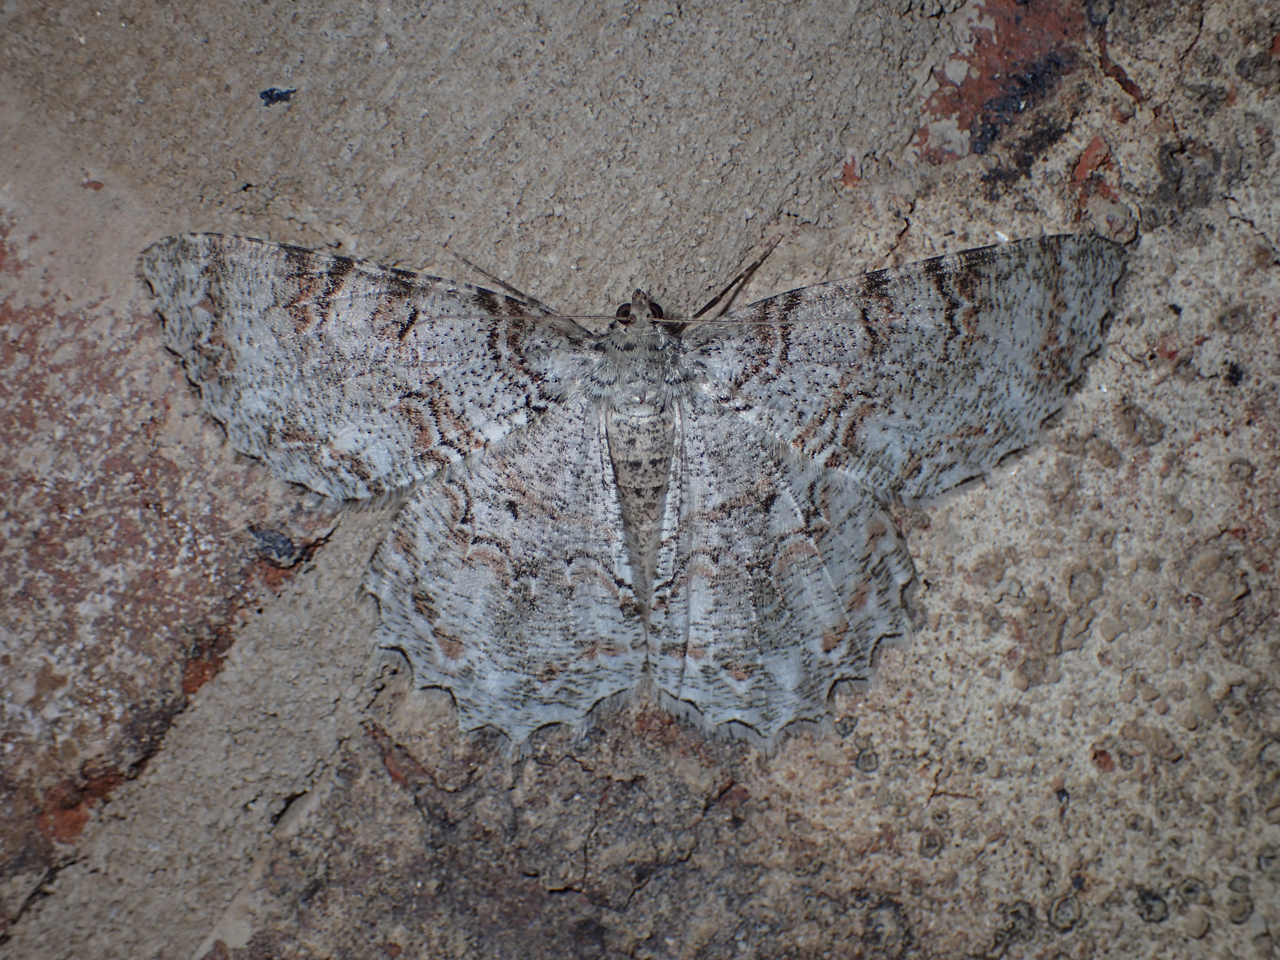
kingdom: Animalia
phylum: Arthropoda
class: Insecta
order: Lepidoptera
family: Geometridae
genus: Epimecis
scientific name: Epimecis hortaria
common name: Tulip-tree beauty
